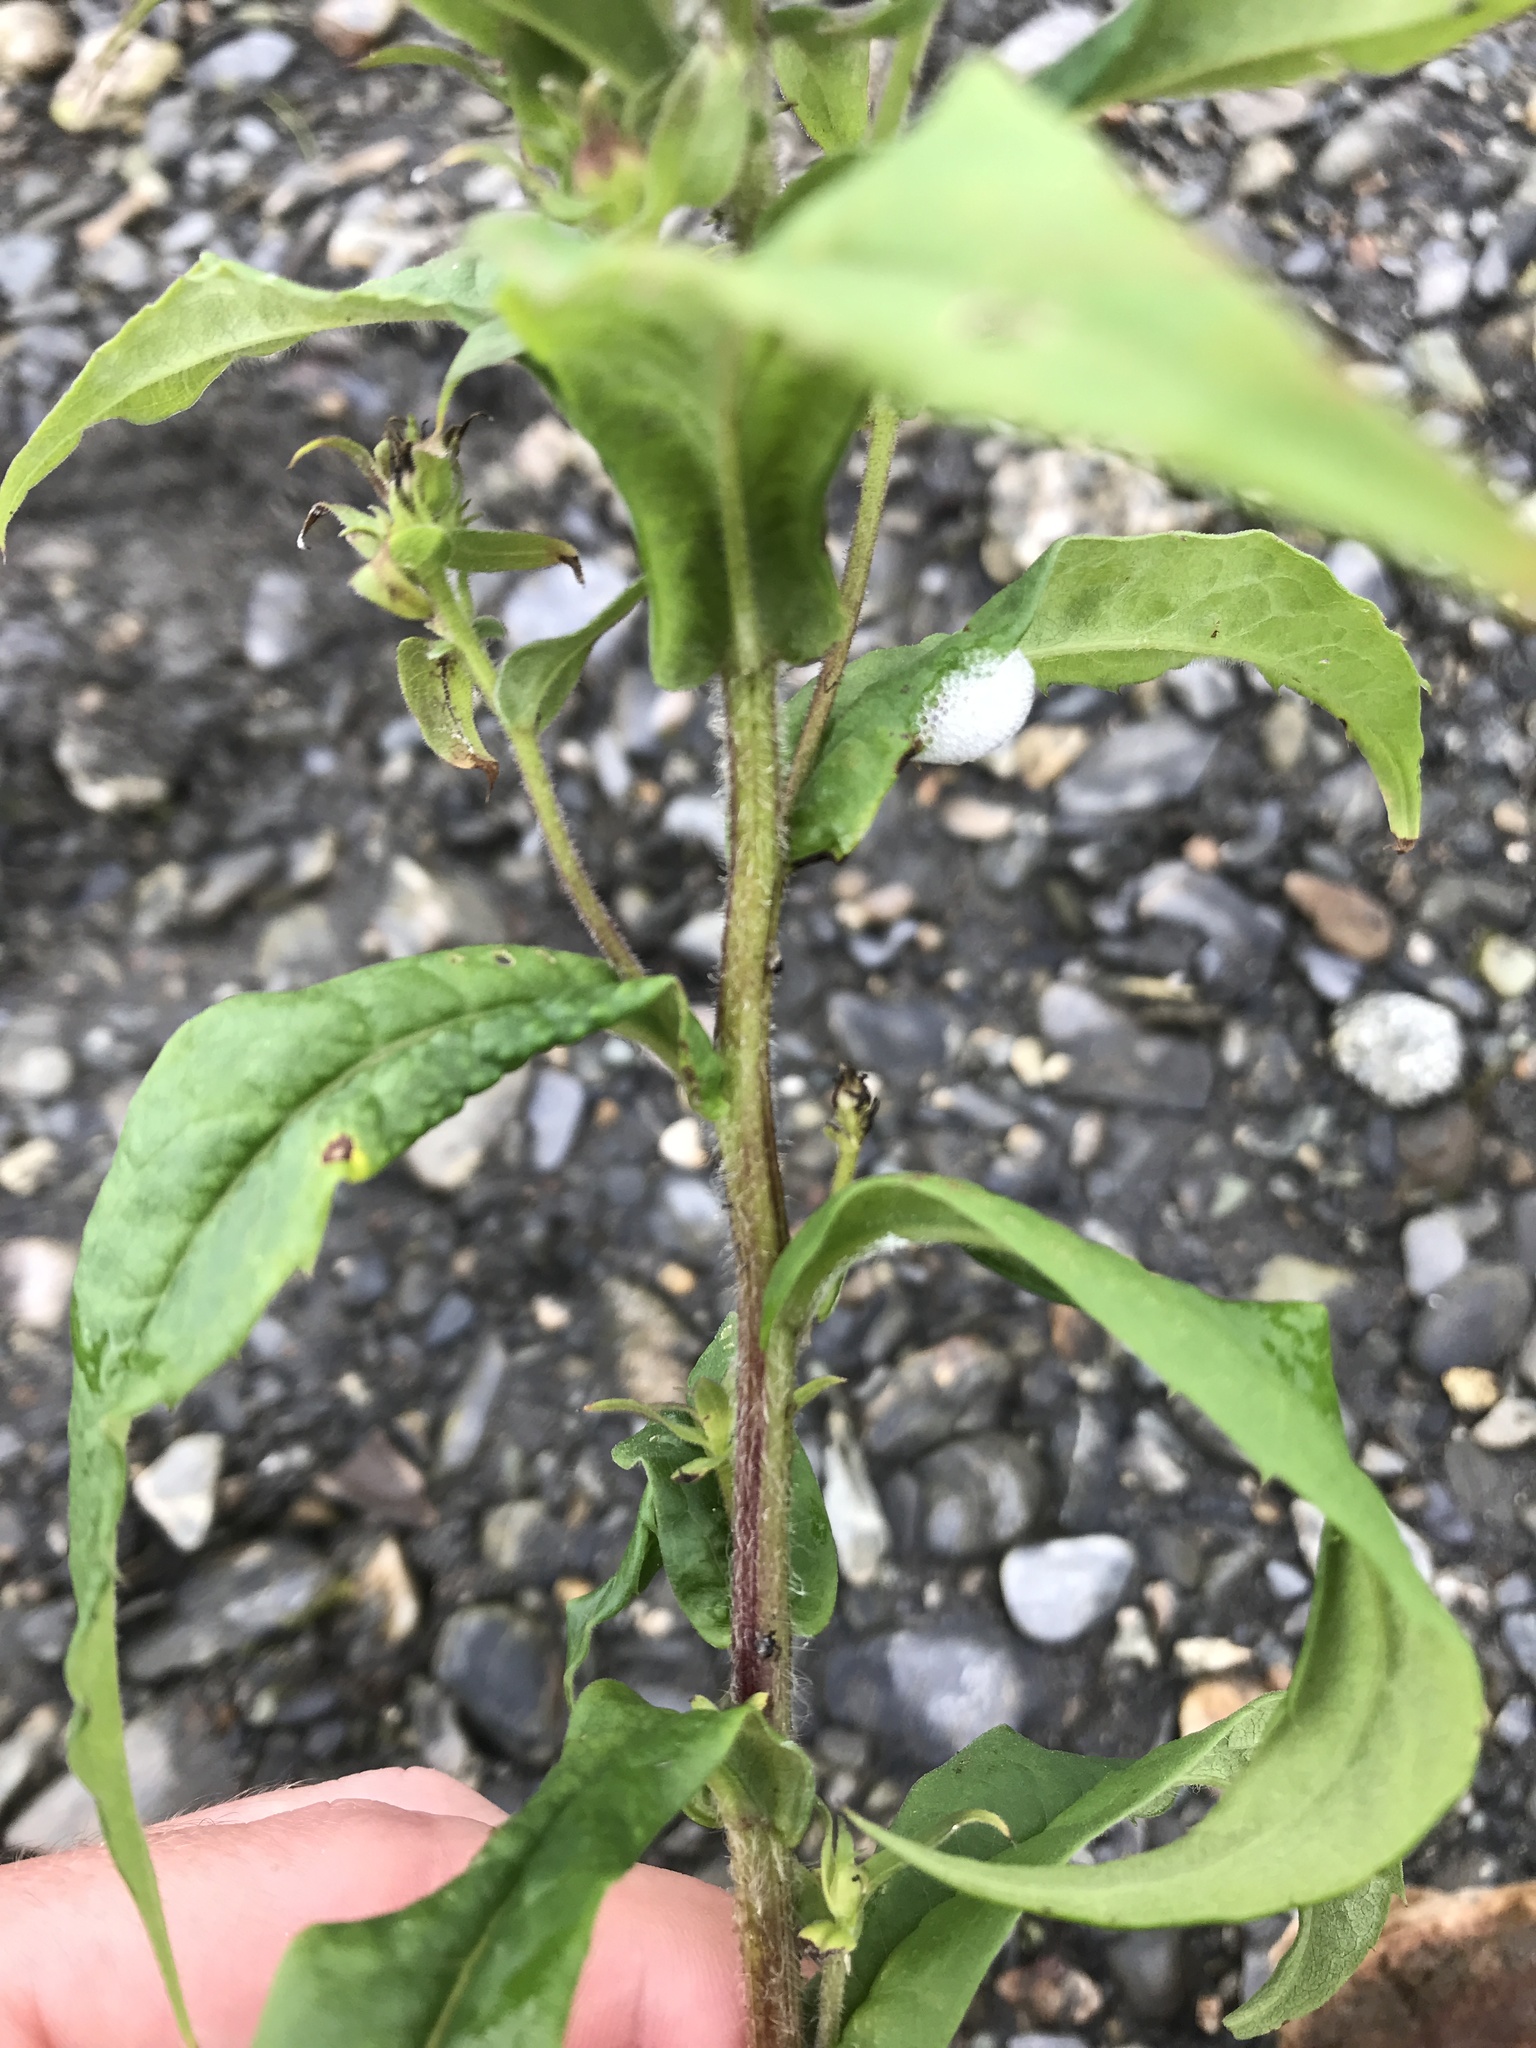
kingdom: Plantae
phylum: Tracheophyta
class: Magnoliopsida
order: Asterales
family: Asteraceae
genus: Canadanthus
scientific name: Canadanthus modestus
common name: Great northern aster
